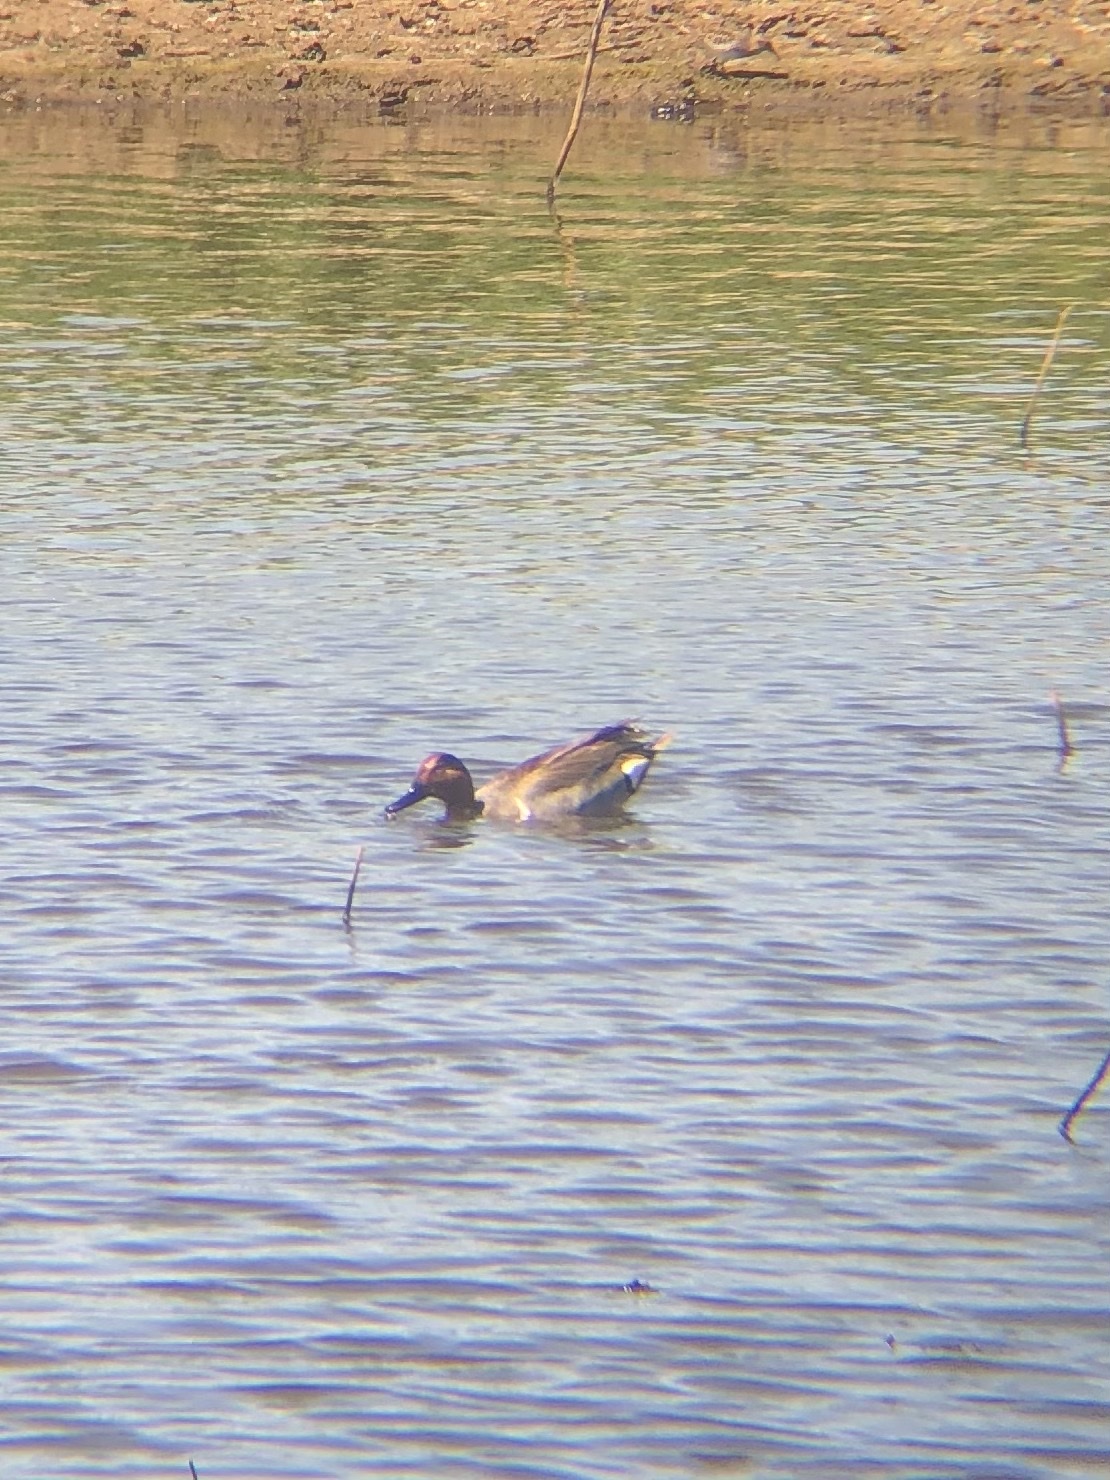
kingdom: Animalia
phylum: Chordata
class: Aves
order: Anseriformes
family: Anatidae
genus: Anas
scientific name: Anas crecca
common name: Eurasian teal
